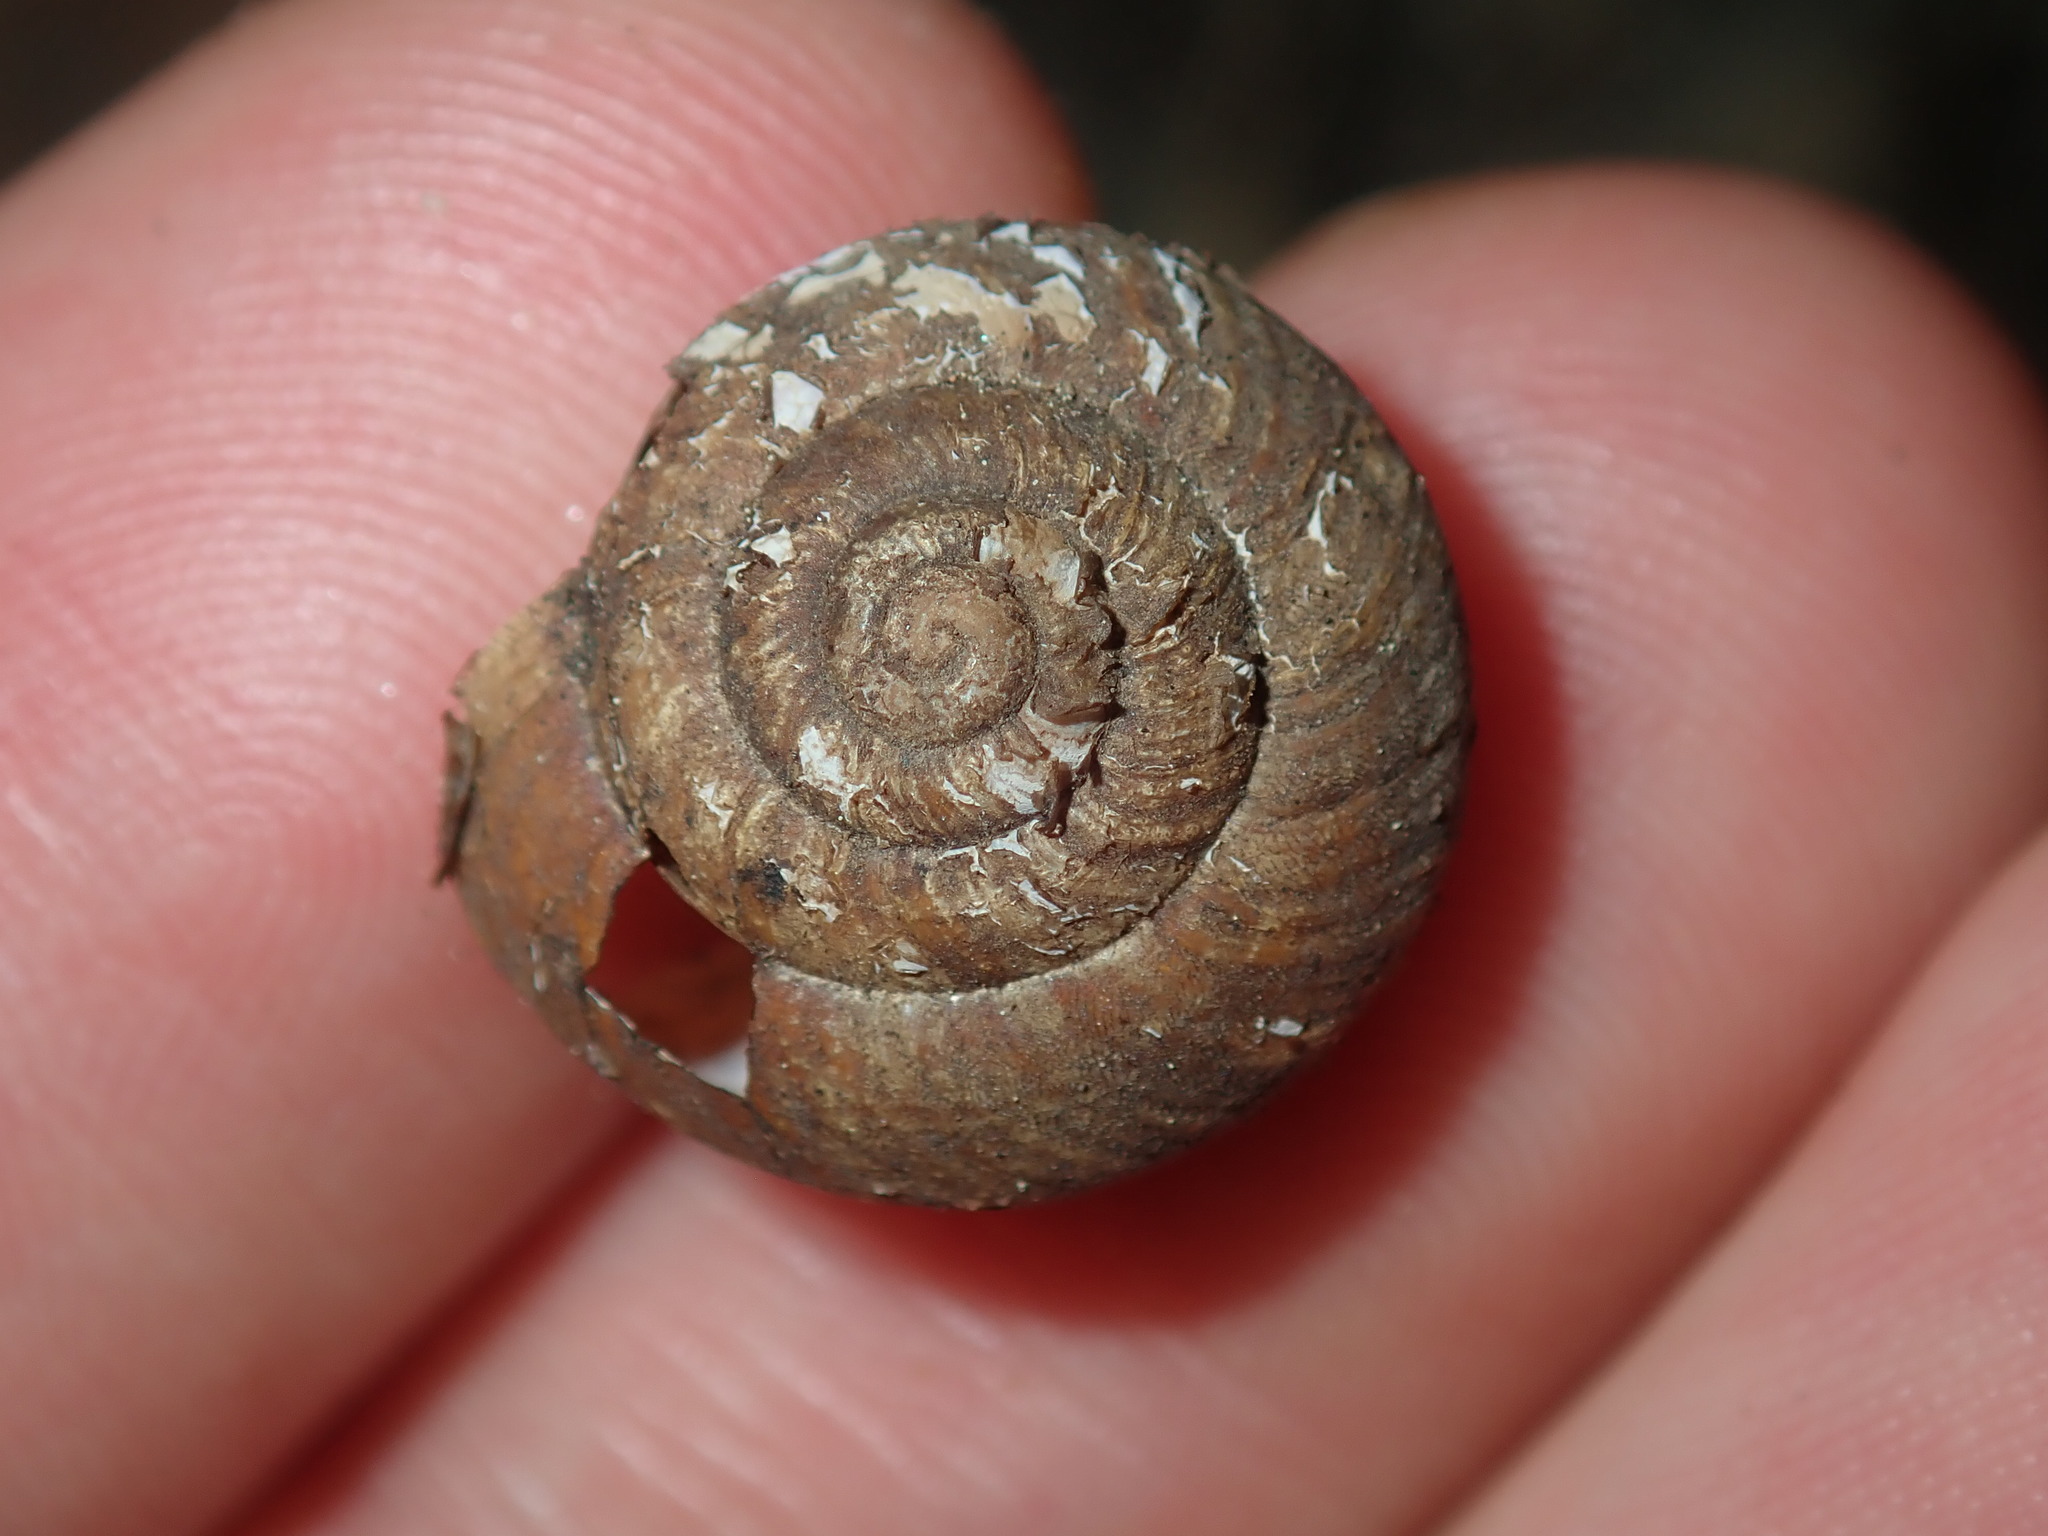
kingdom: Animalia
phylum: Mollusca
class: Gastropoda
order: Stylommatophora
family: Camaenidae
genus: Sauroconcha
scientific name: Sauroconcha sheai
